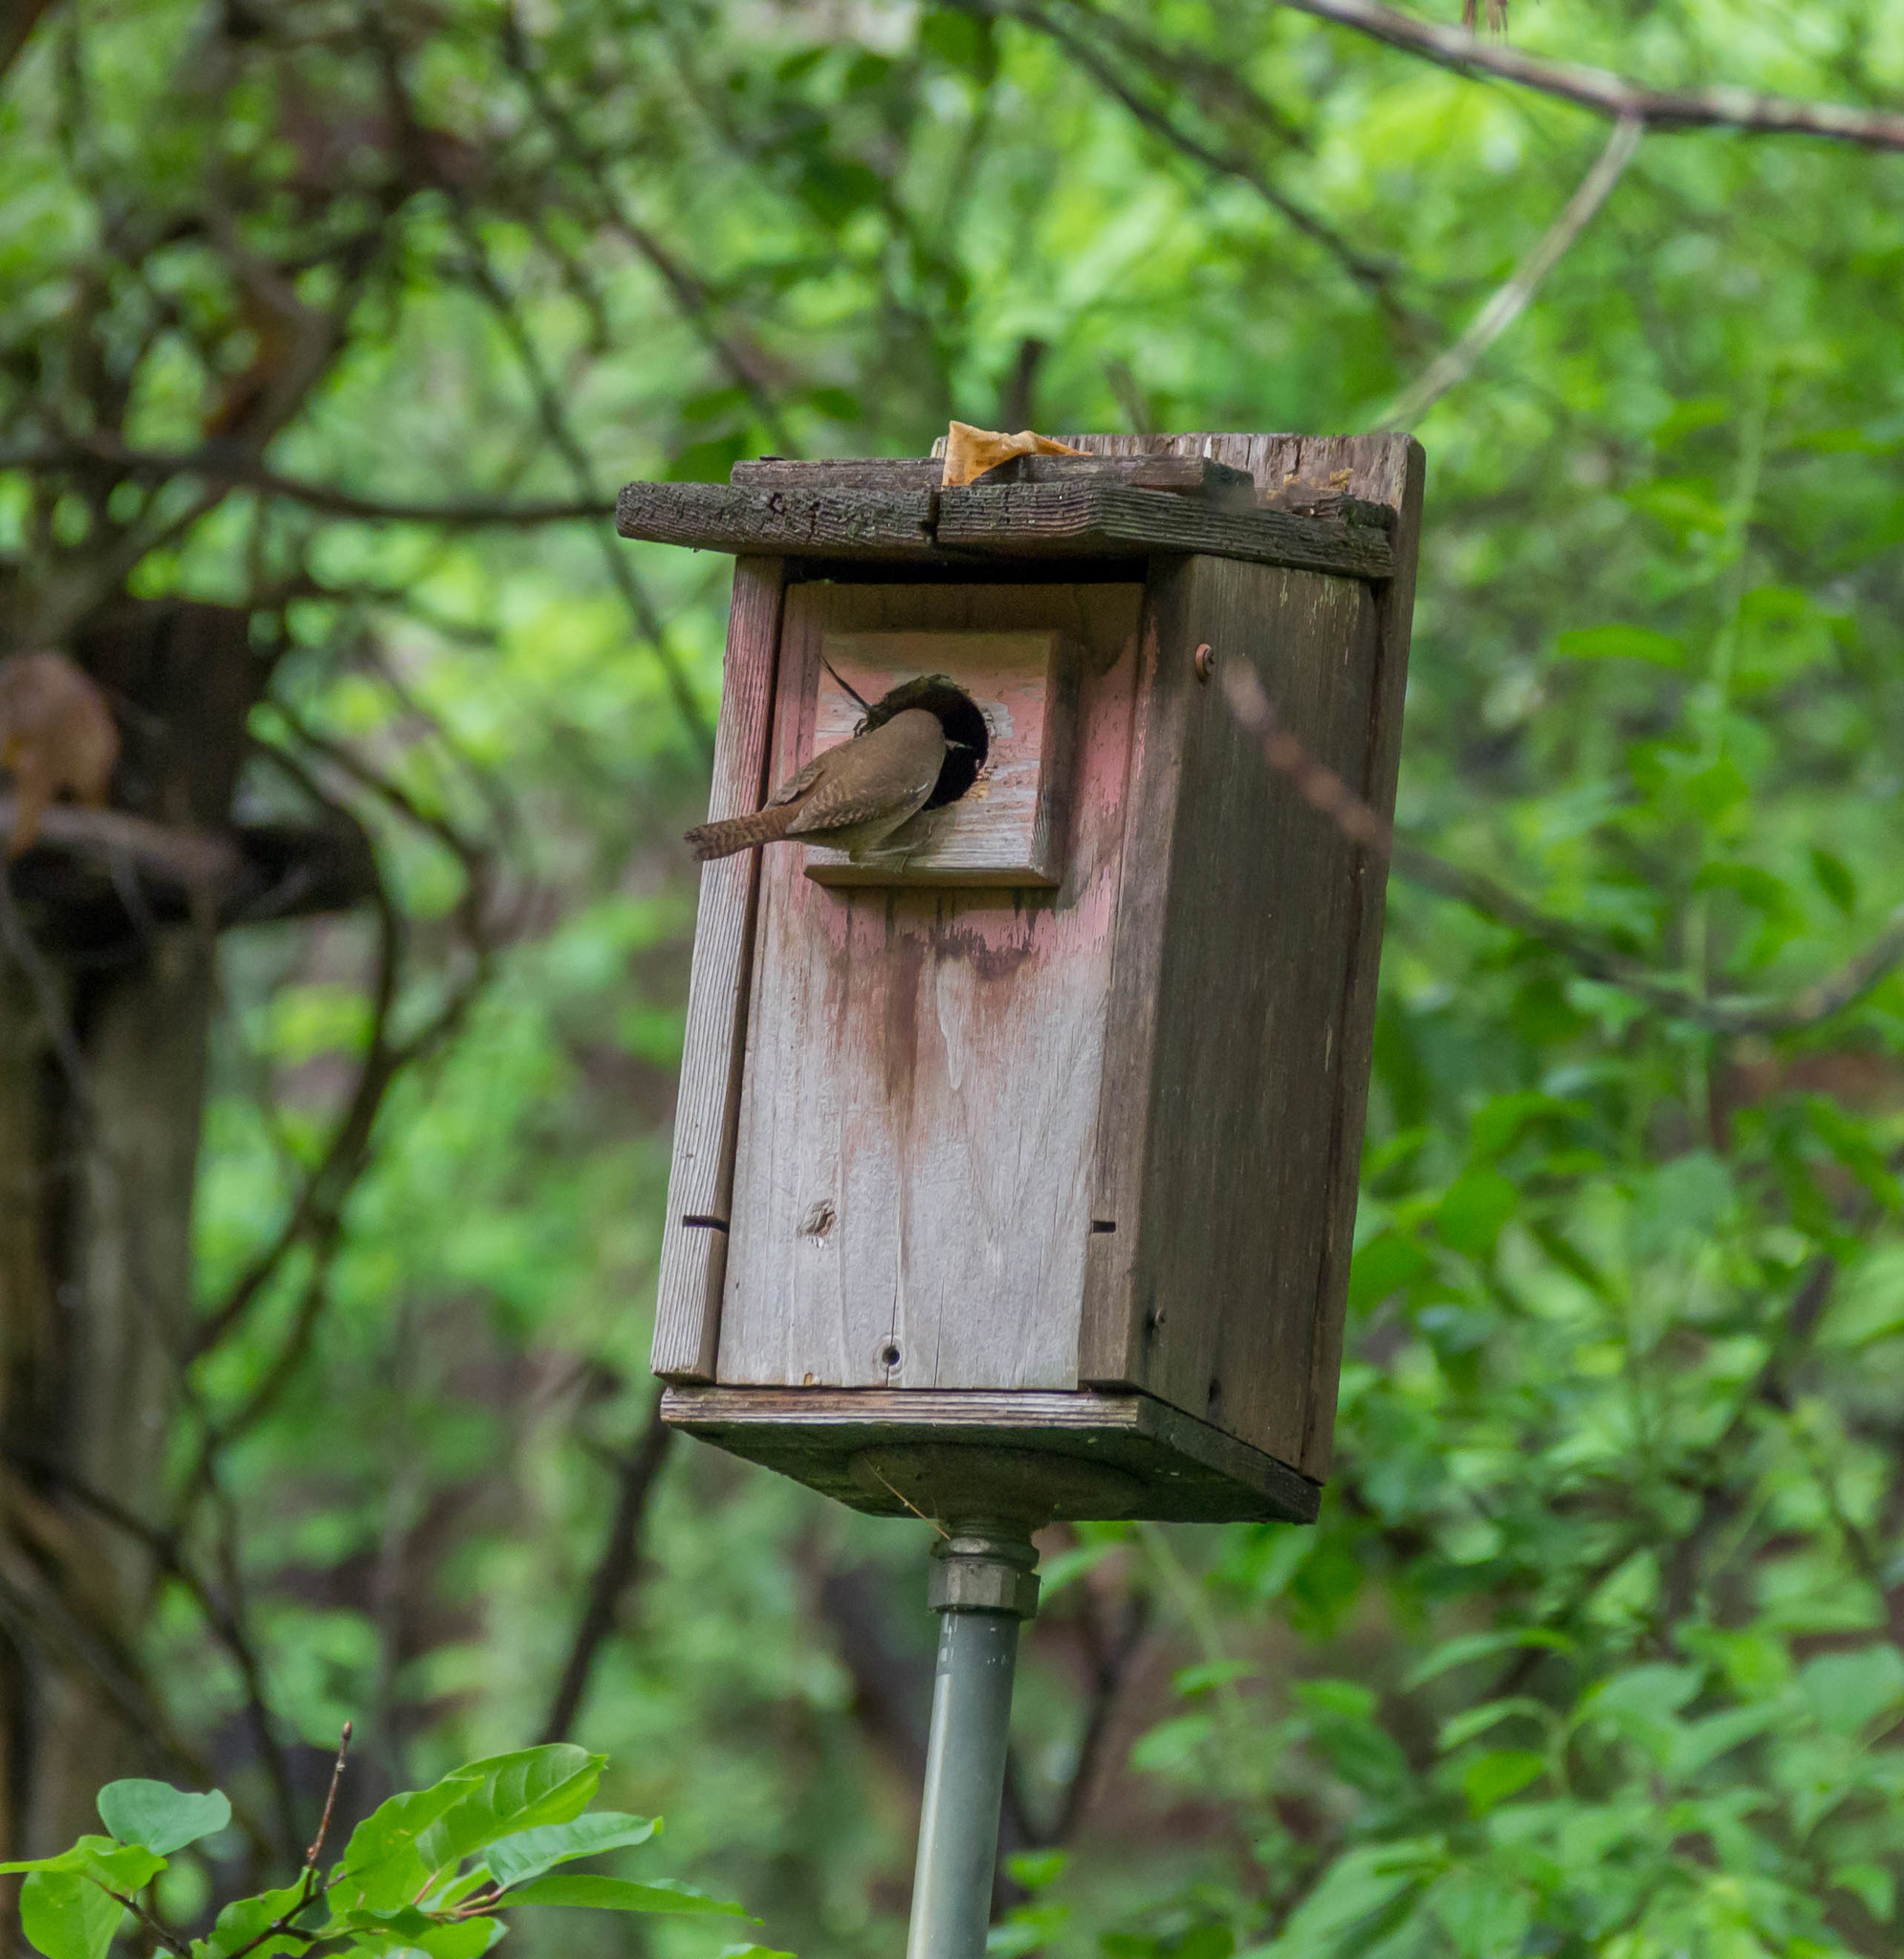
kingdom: Animalia
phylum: Chordata
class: Aves
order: Passeriformes
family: Troglodytidae
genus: Troglodytes
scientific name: Troglodytes aedon
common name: House wren
